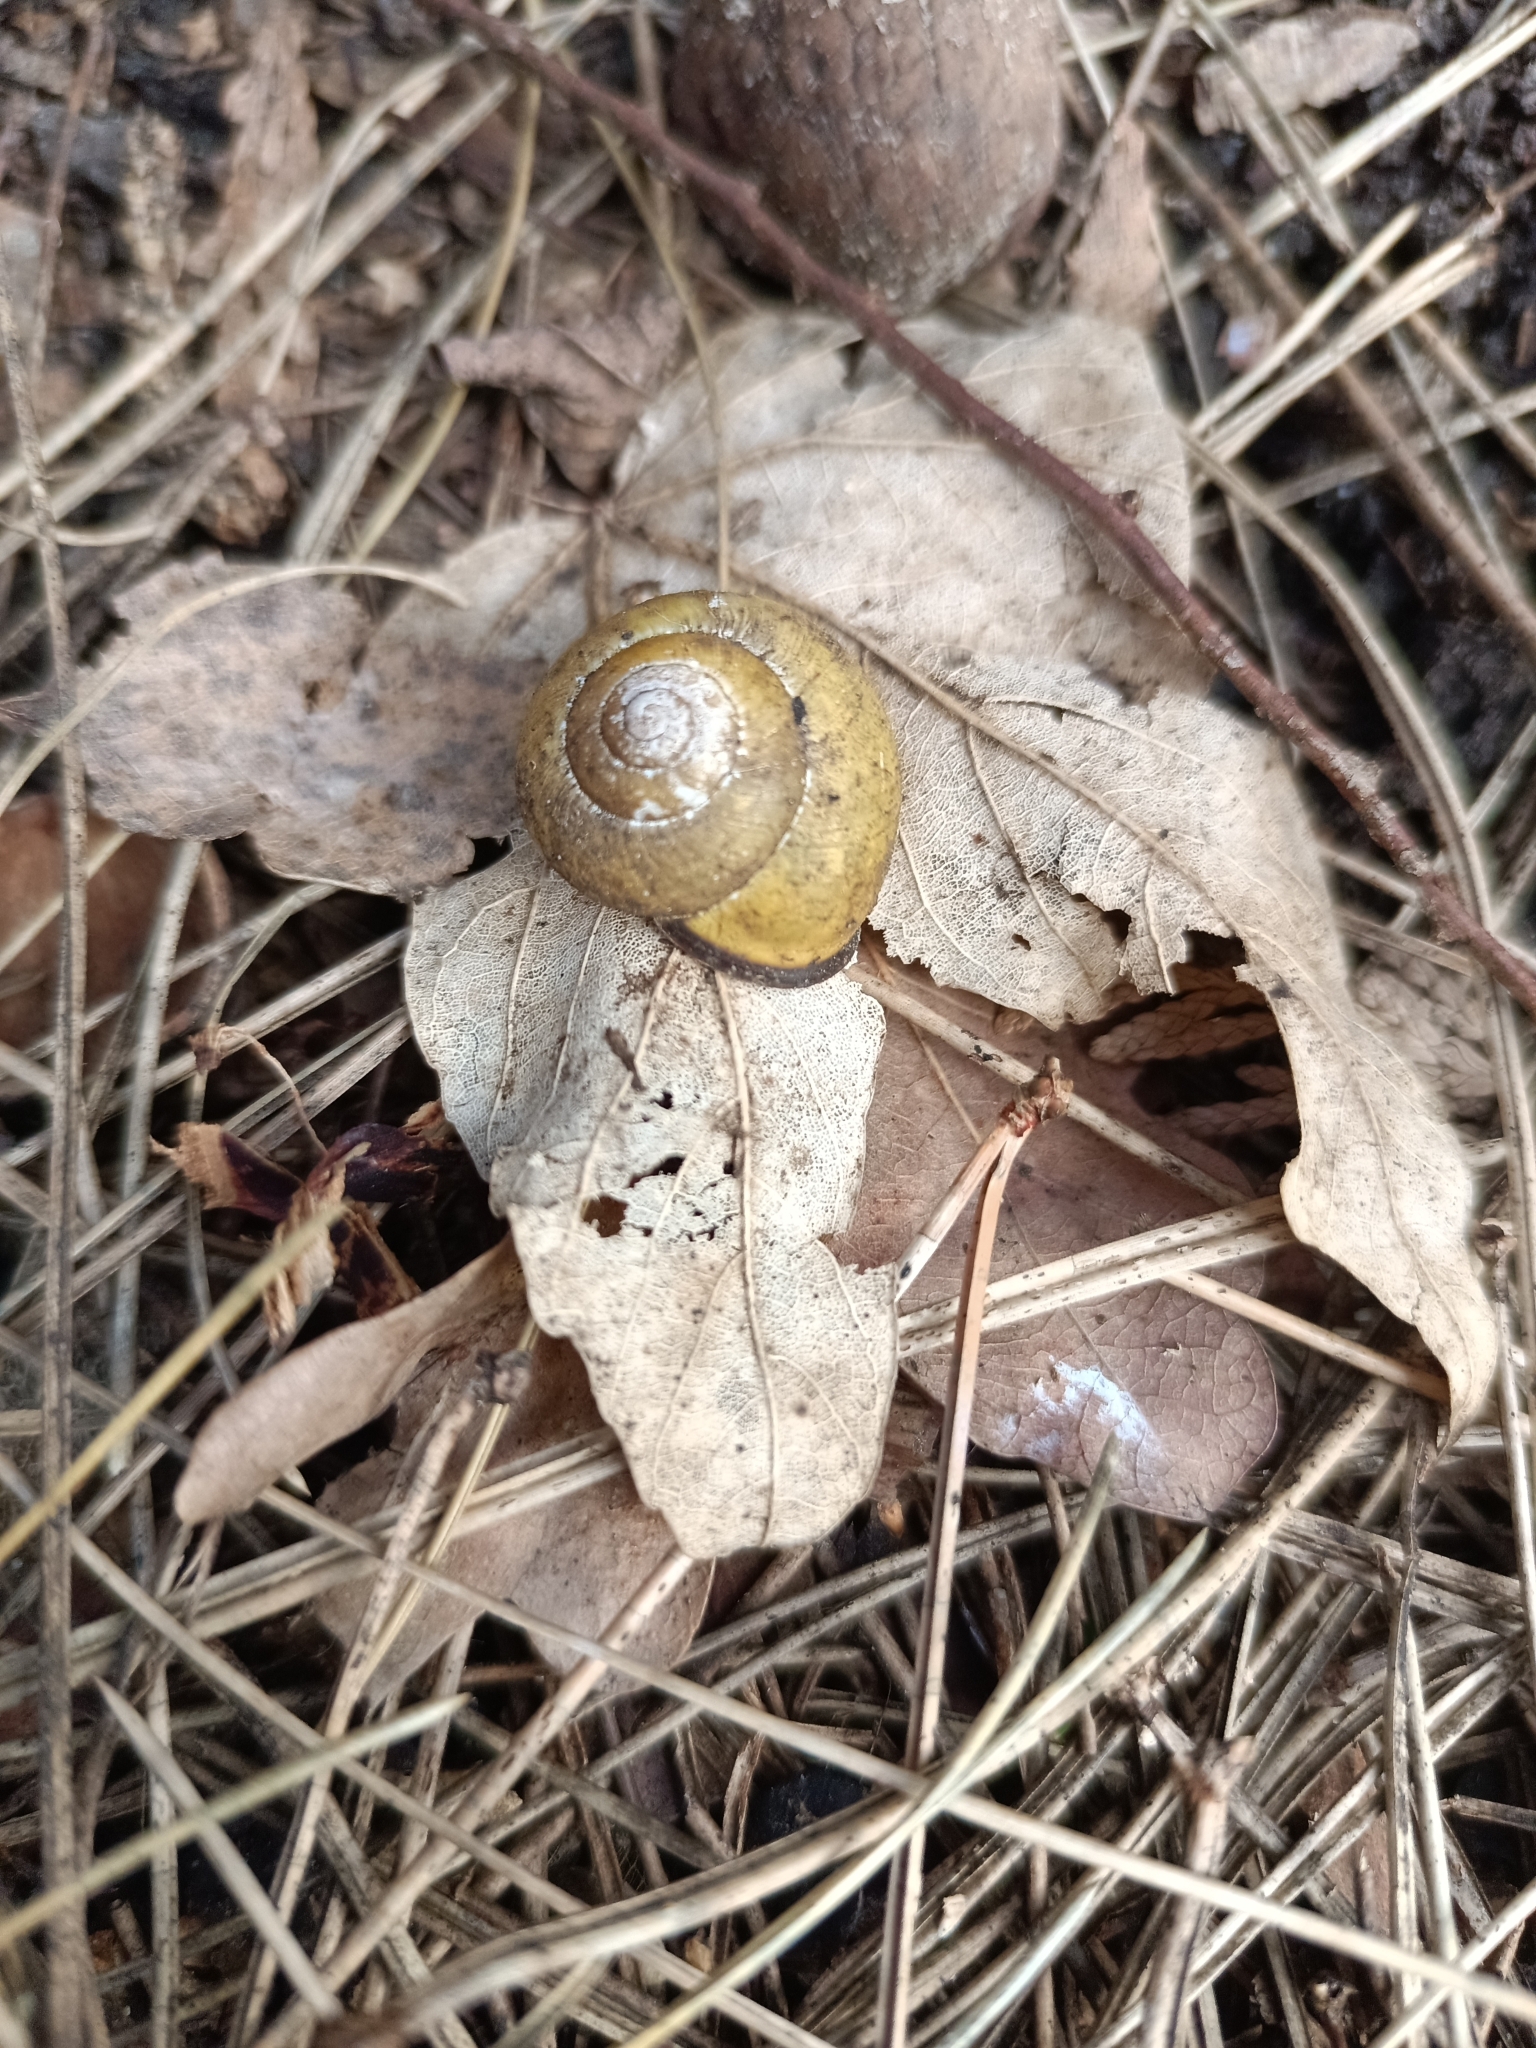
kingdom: Animalia
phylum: Mollusca
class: Gastropoda
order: Stylommatophora
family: Helicidae
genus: Cepaea
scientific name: Cepaea nemoralis
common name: Grovesnail
